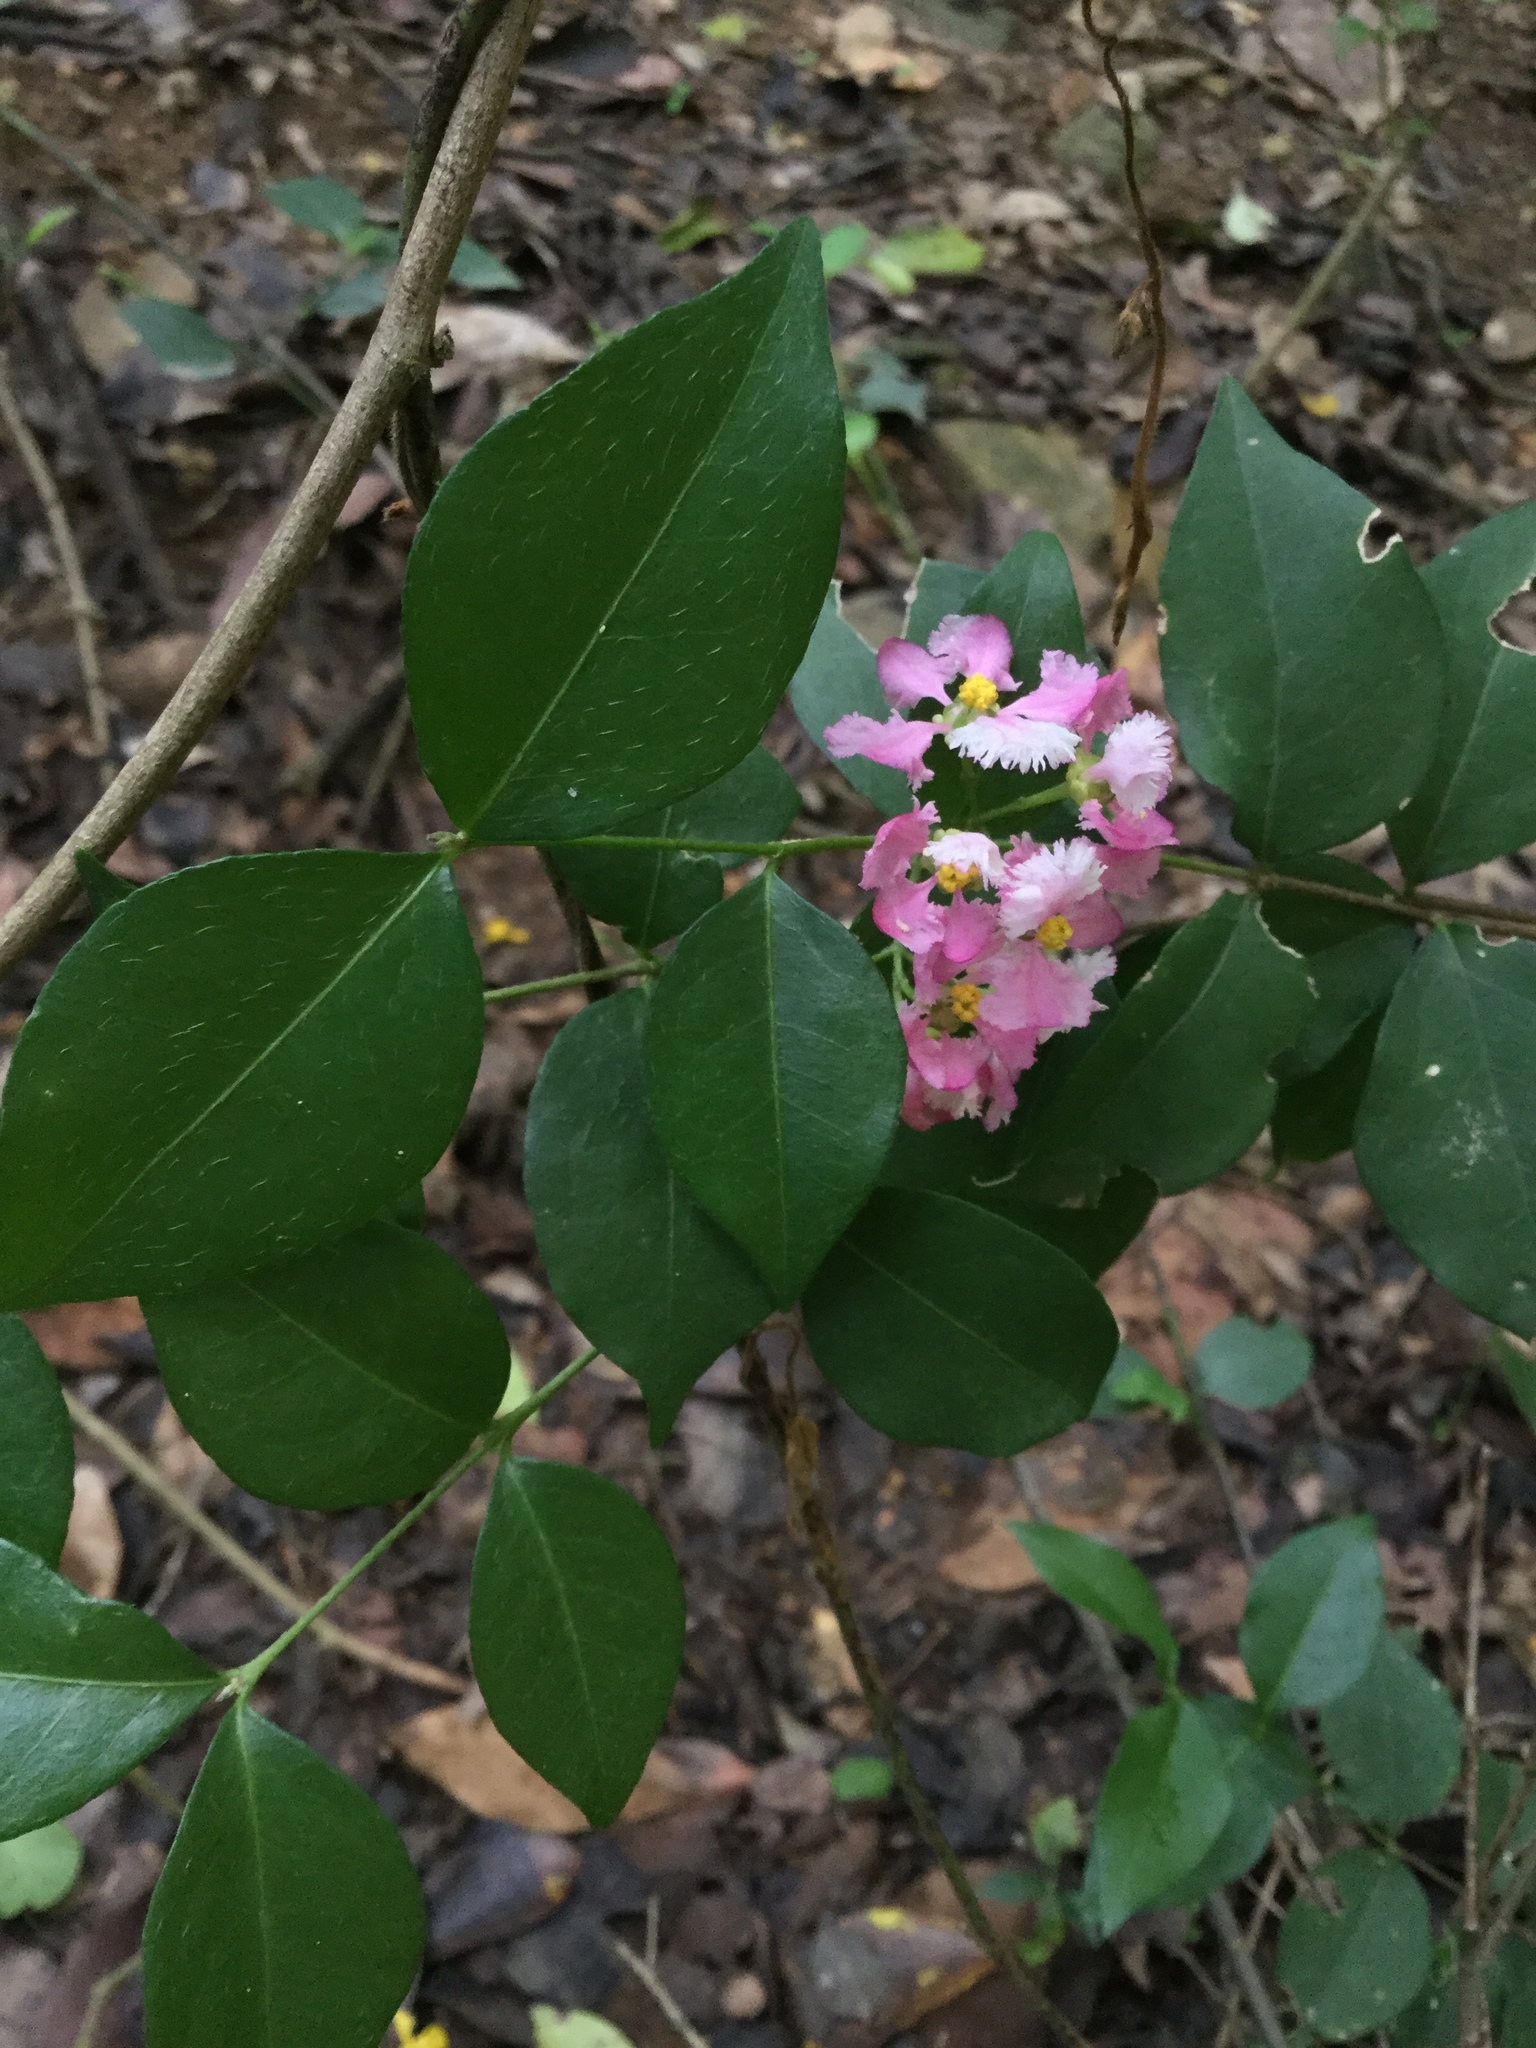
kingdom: Plantae
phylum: Tracheophyta
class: Magnoliopsida
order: Malpighiales
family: Malpighiaceae
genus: Malpighia
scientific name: Malpighia glabra
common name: Barbados cherry
